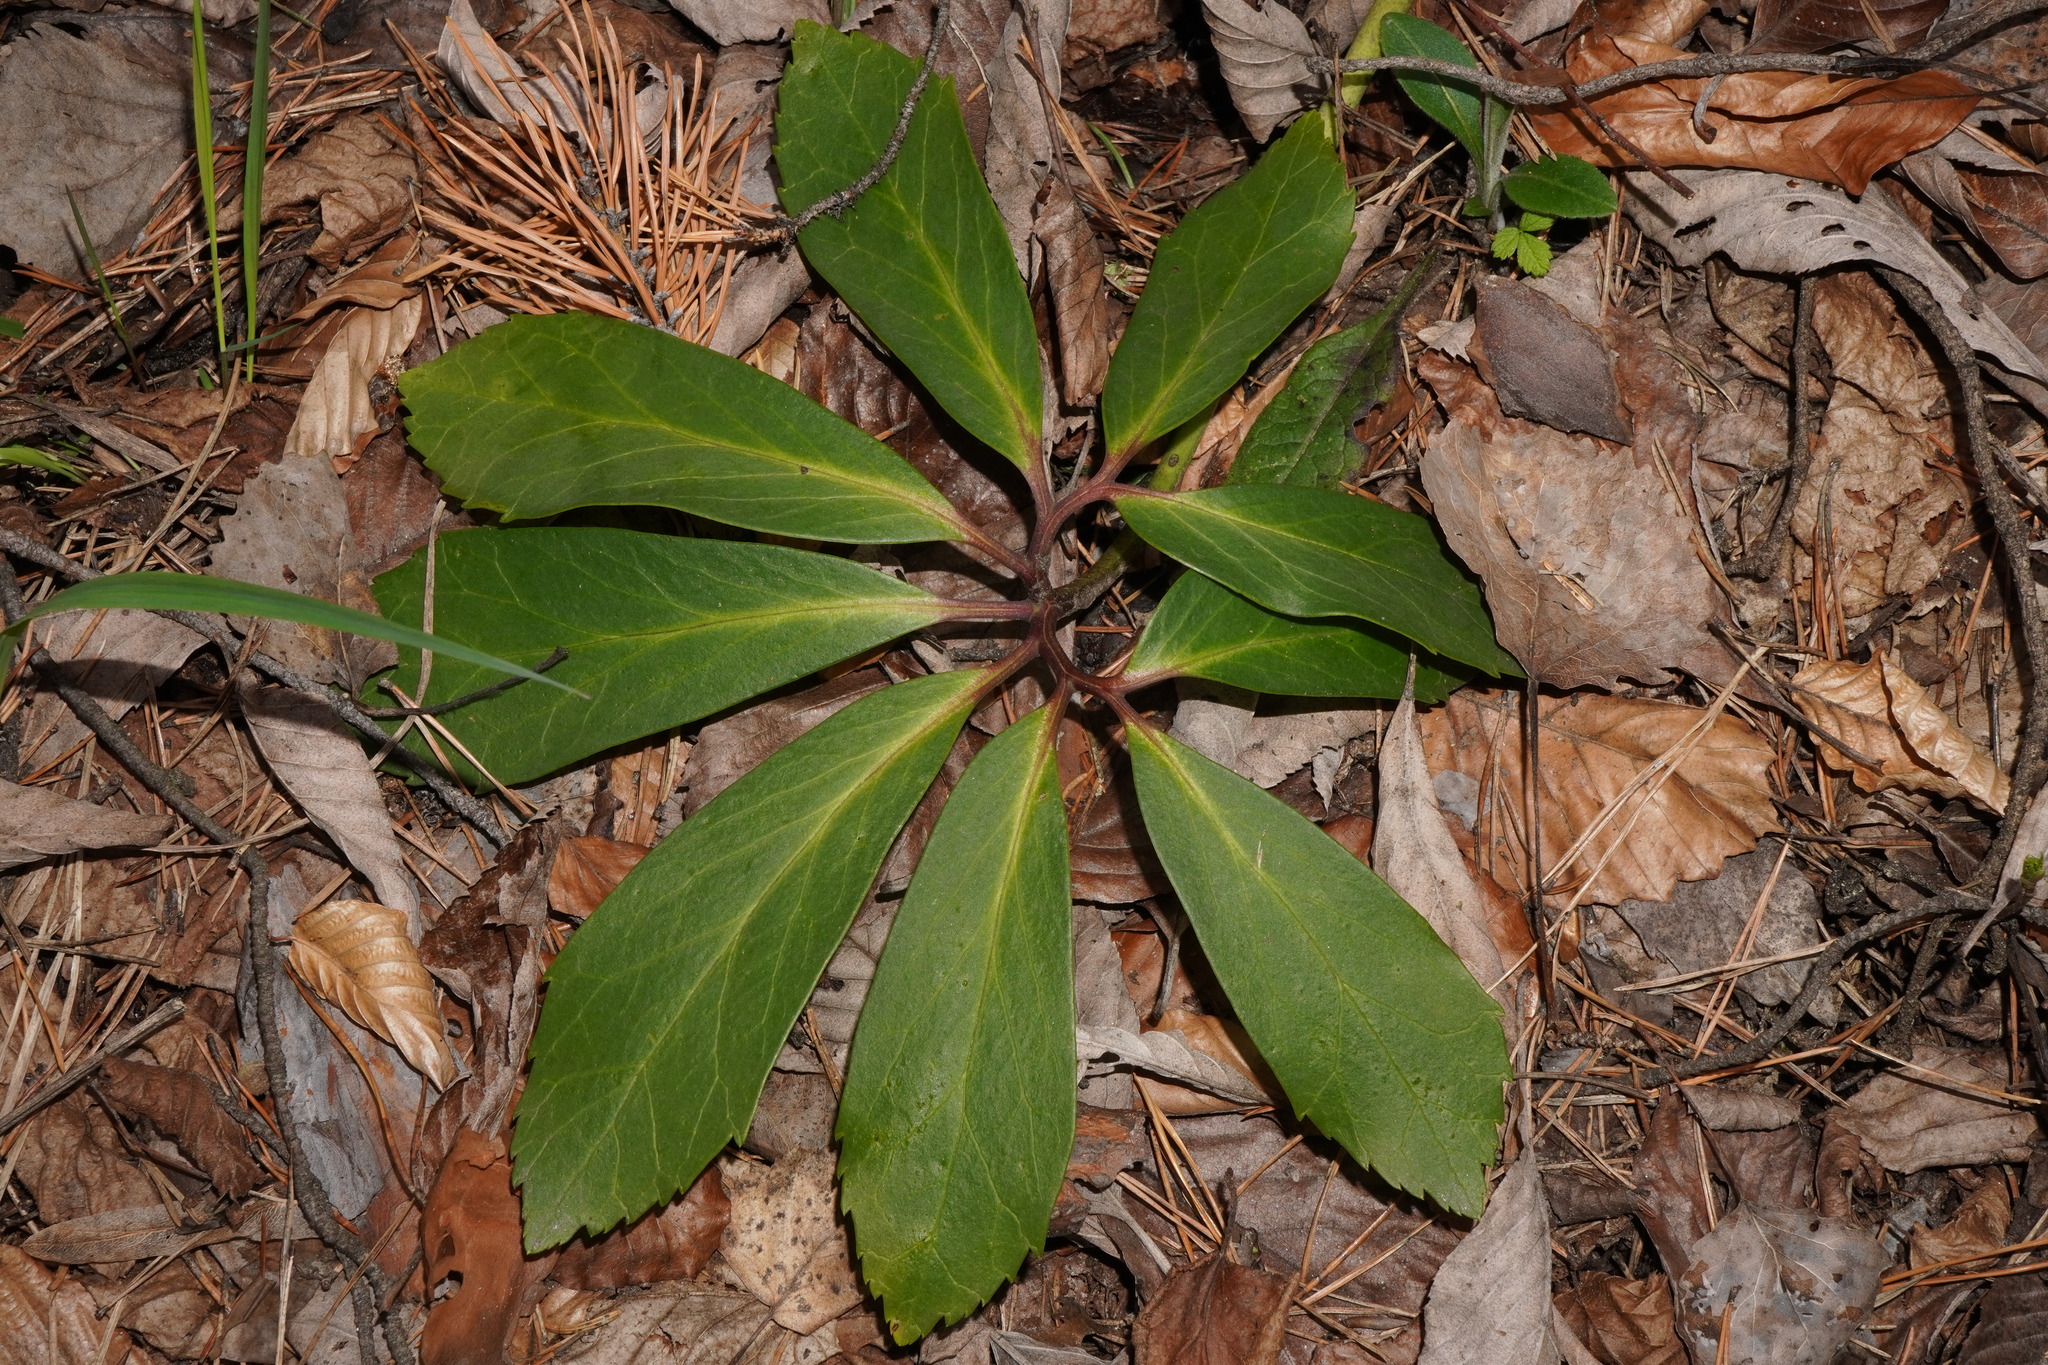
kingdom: Plantae
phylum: Tracheophyta
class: Magnoliopsida
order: Ranunculales
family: Ranunculaceae
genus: Helleborus
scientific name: Helleborus niger
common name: Black hellebore
